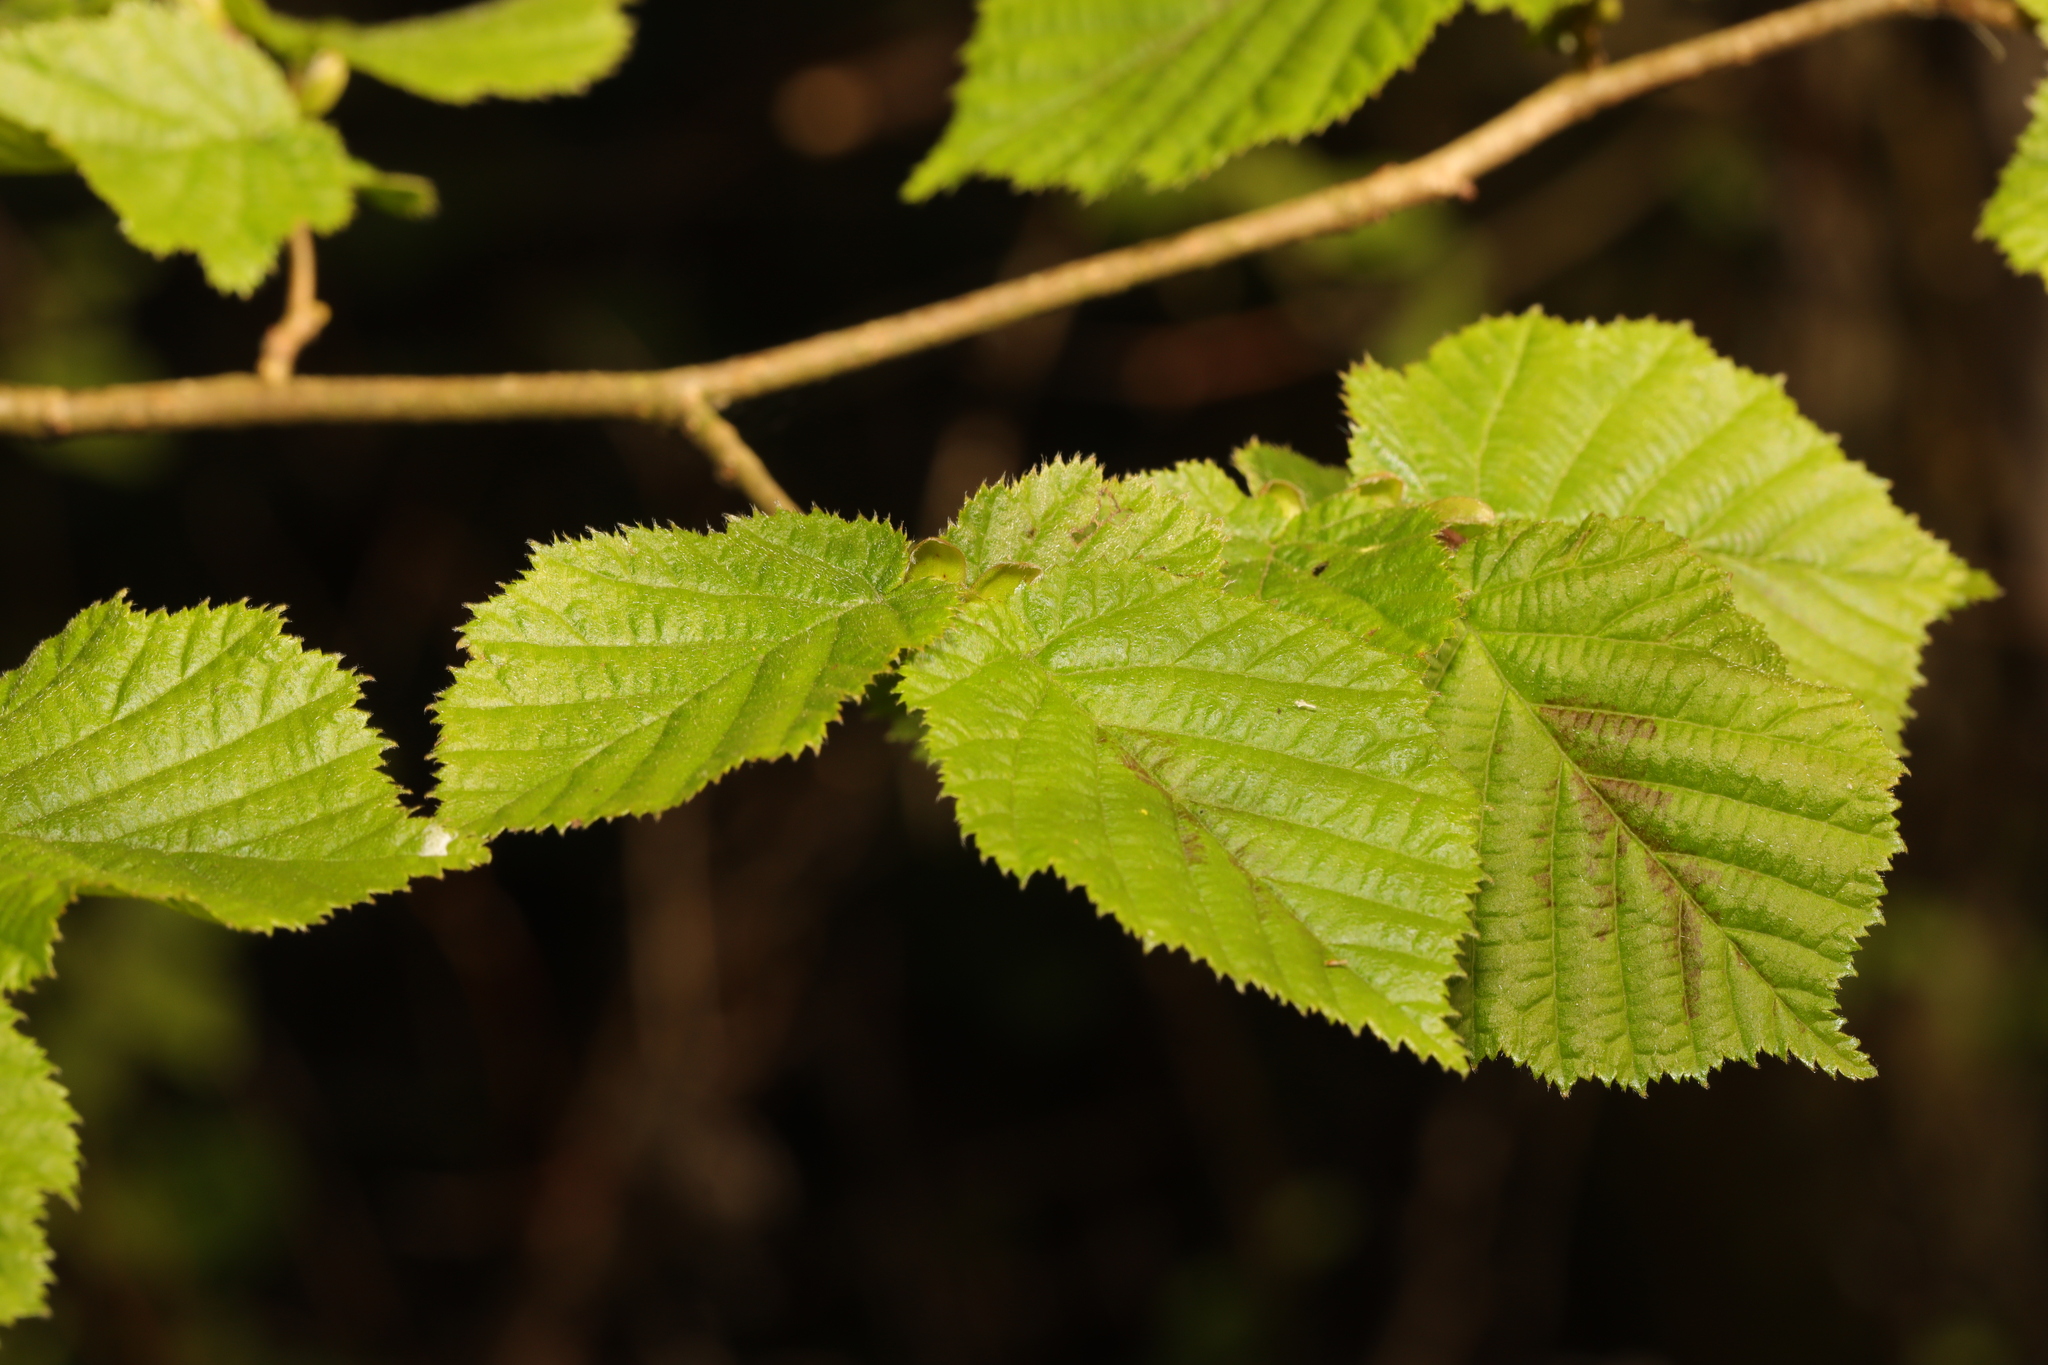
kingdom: Plantae
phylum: Tracheophyta
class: Magnoliopsida
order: Fagales
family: Betulaceae
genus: Corylus
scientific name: Corylus avellana
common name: European hazel
